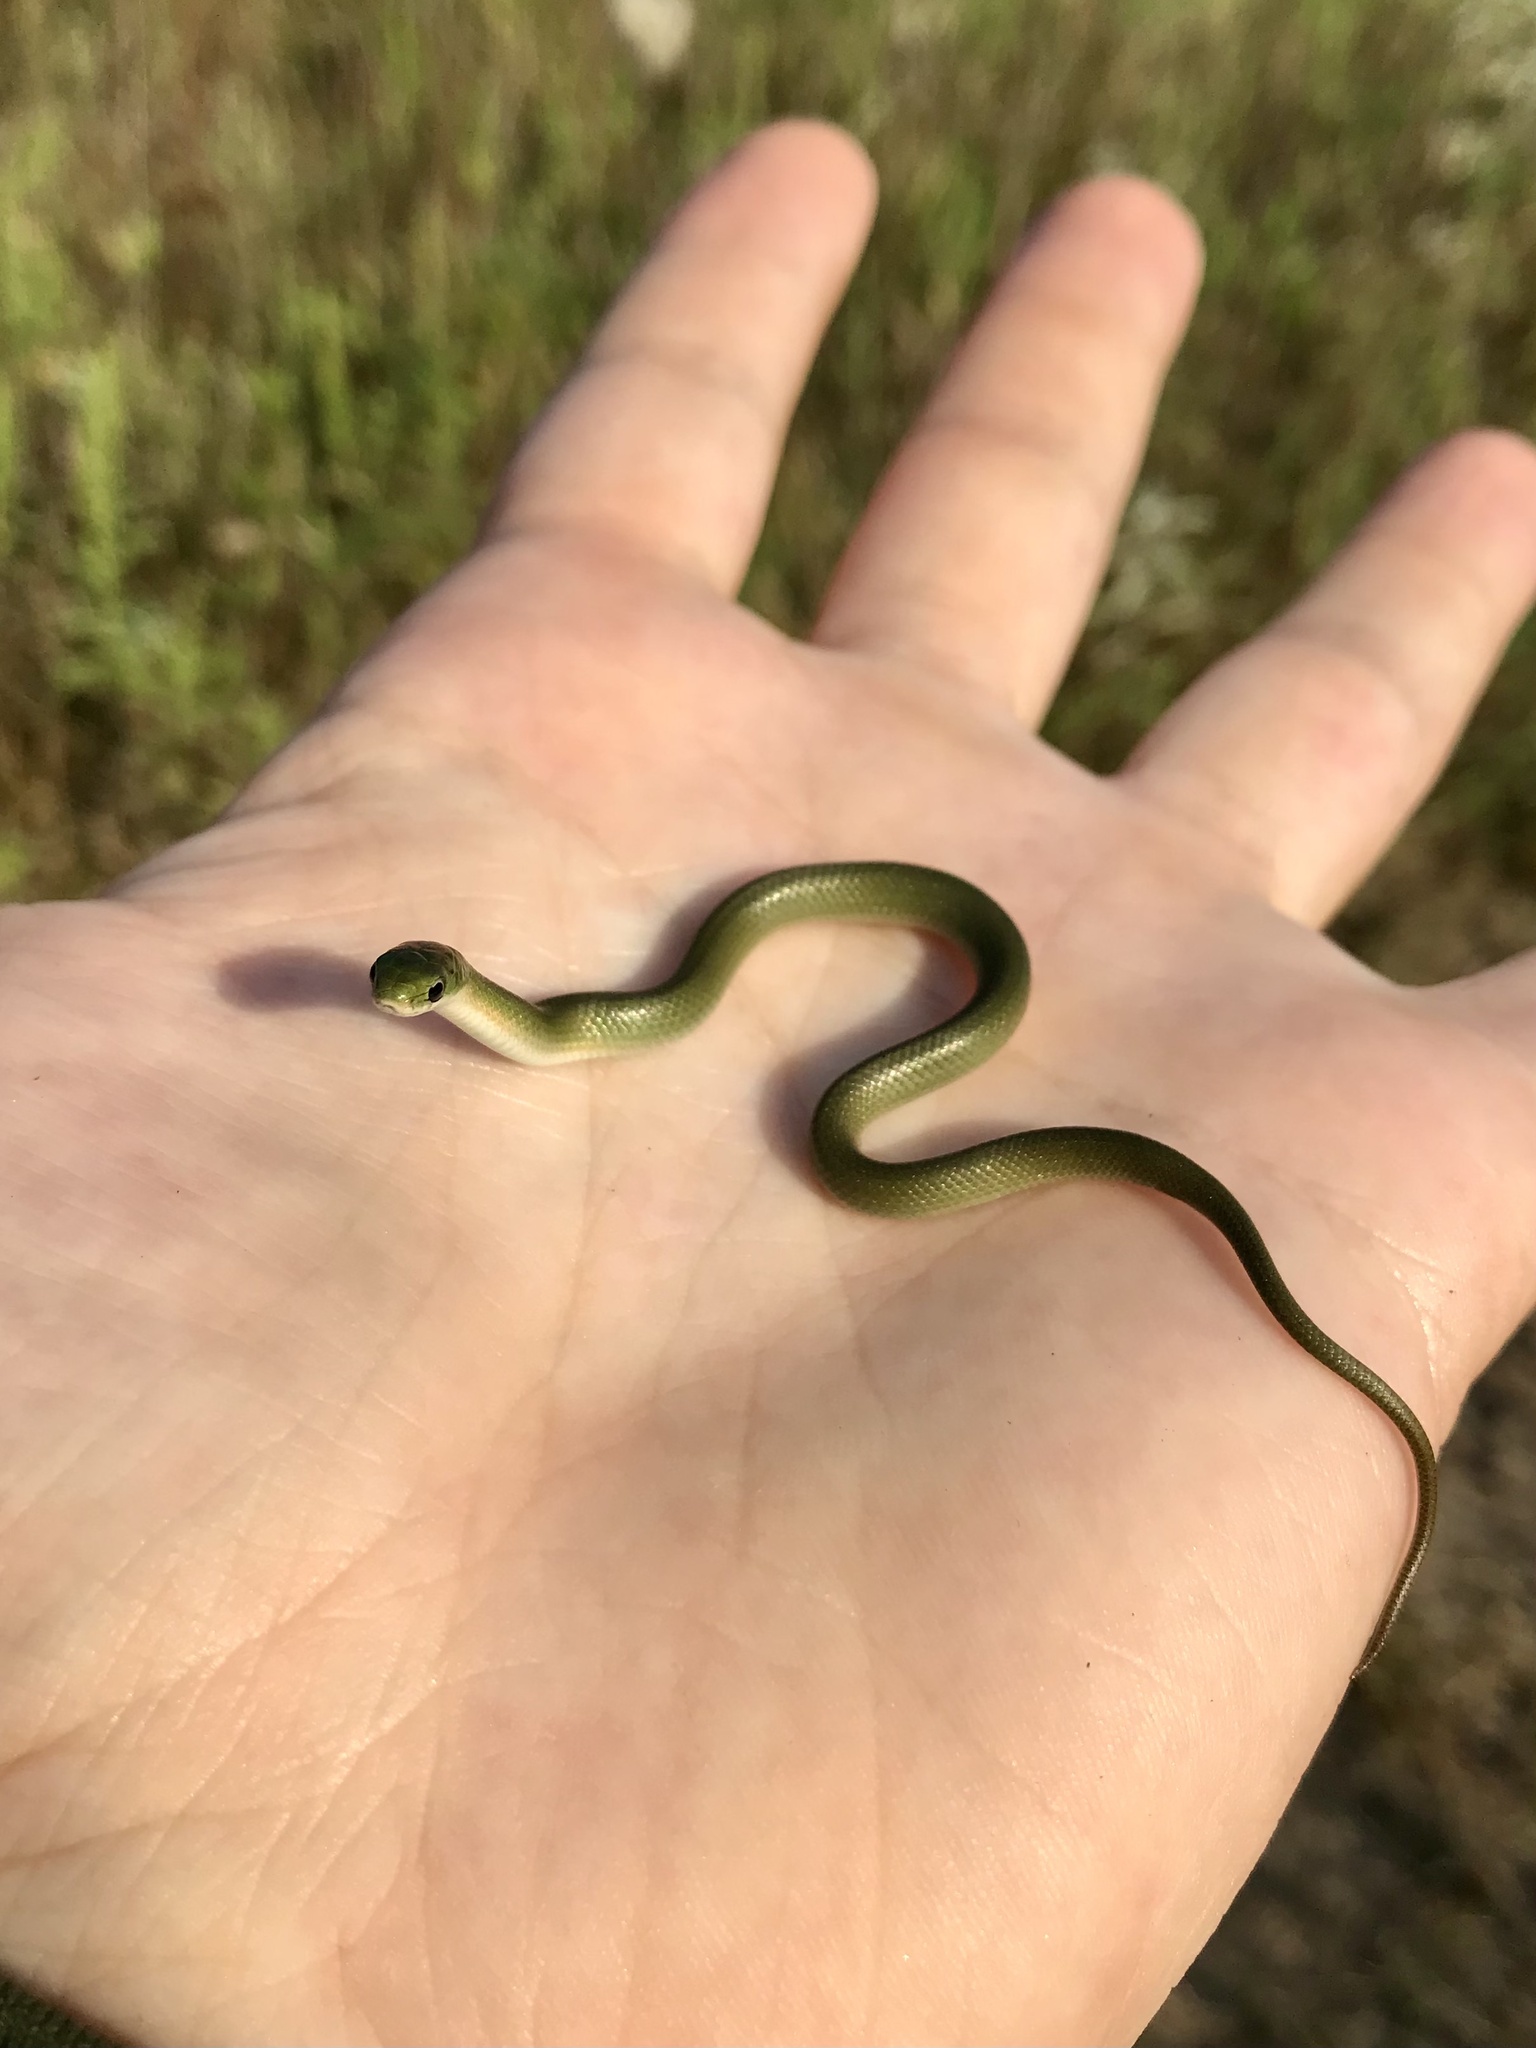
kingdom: Animalia
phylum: Chordata
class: Squamata
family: Colubridae
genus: Opheodrys
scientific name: Opheodrys vernalis
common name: Smooth green snake
